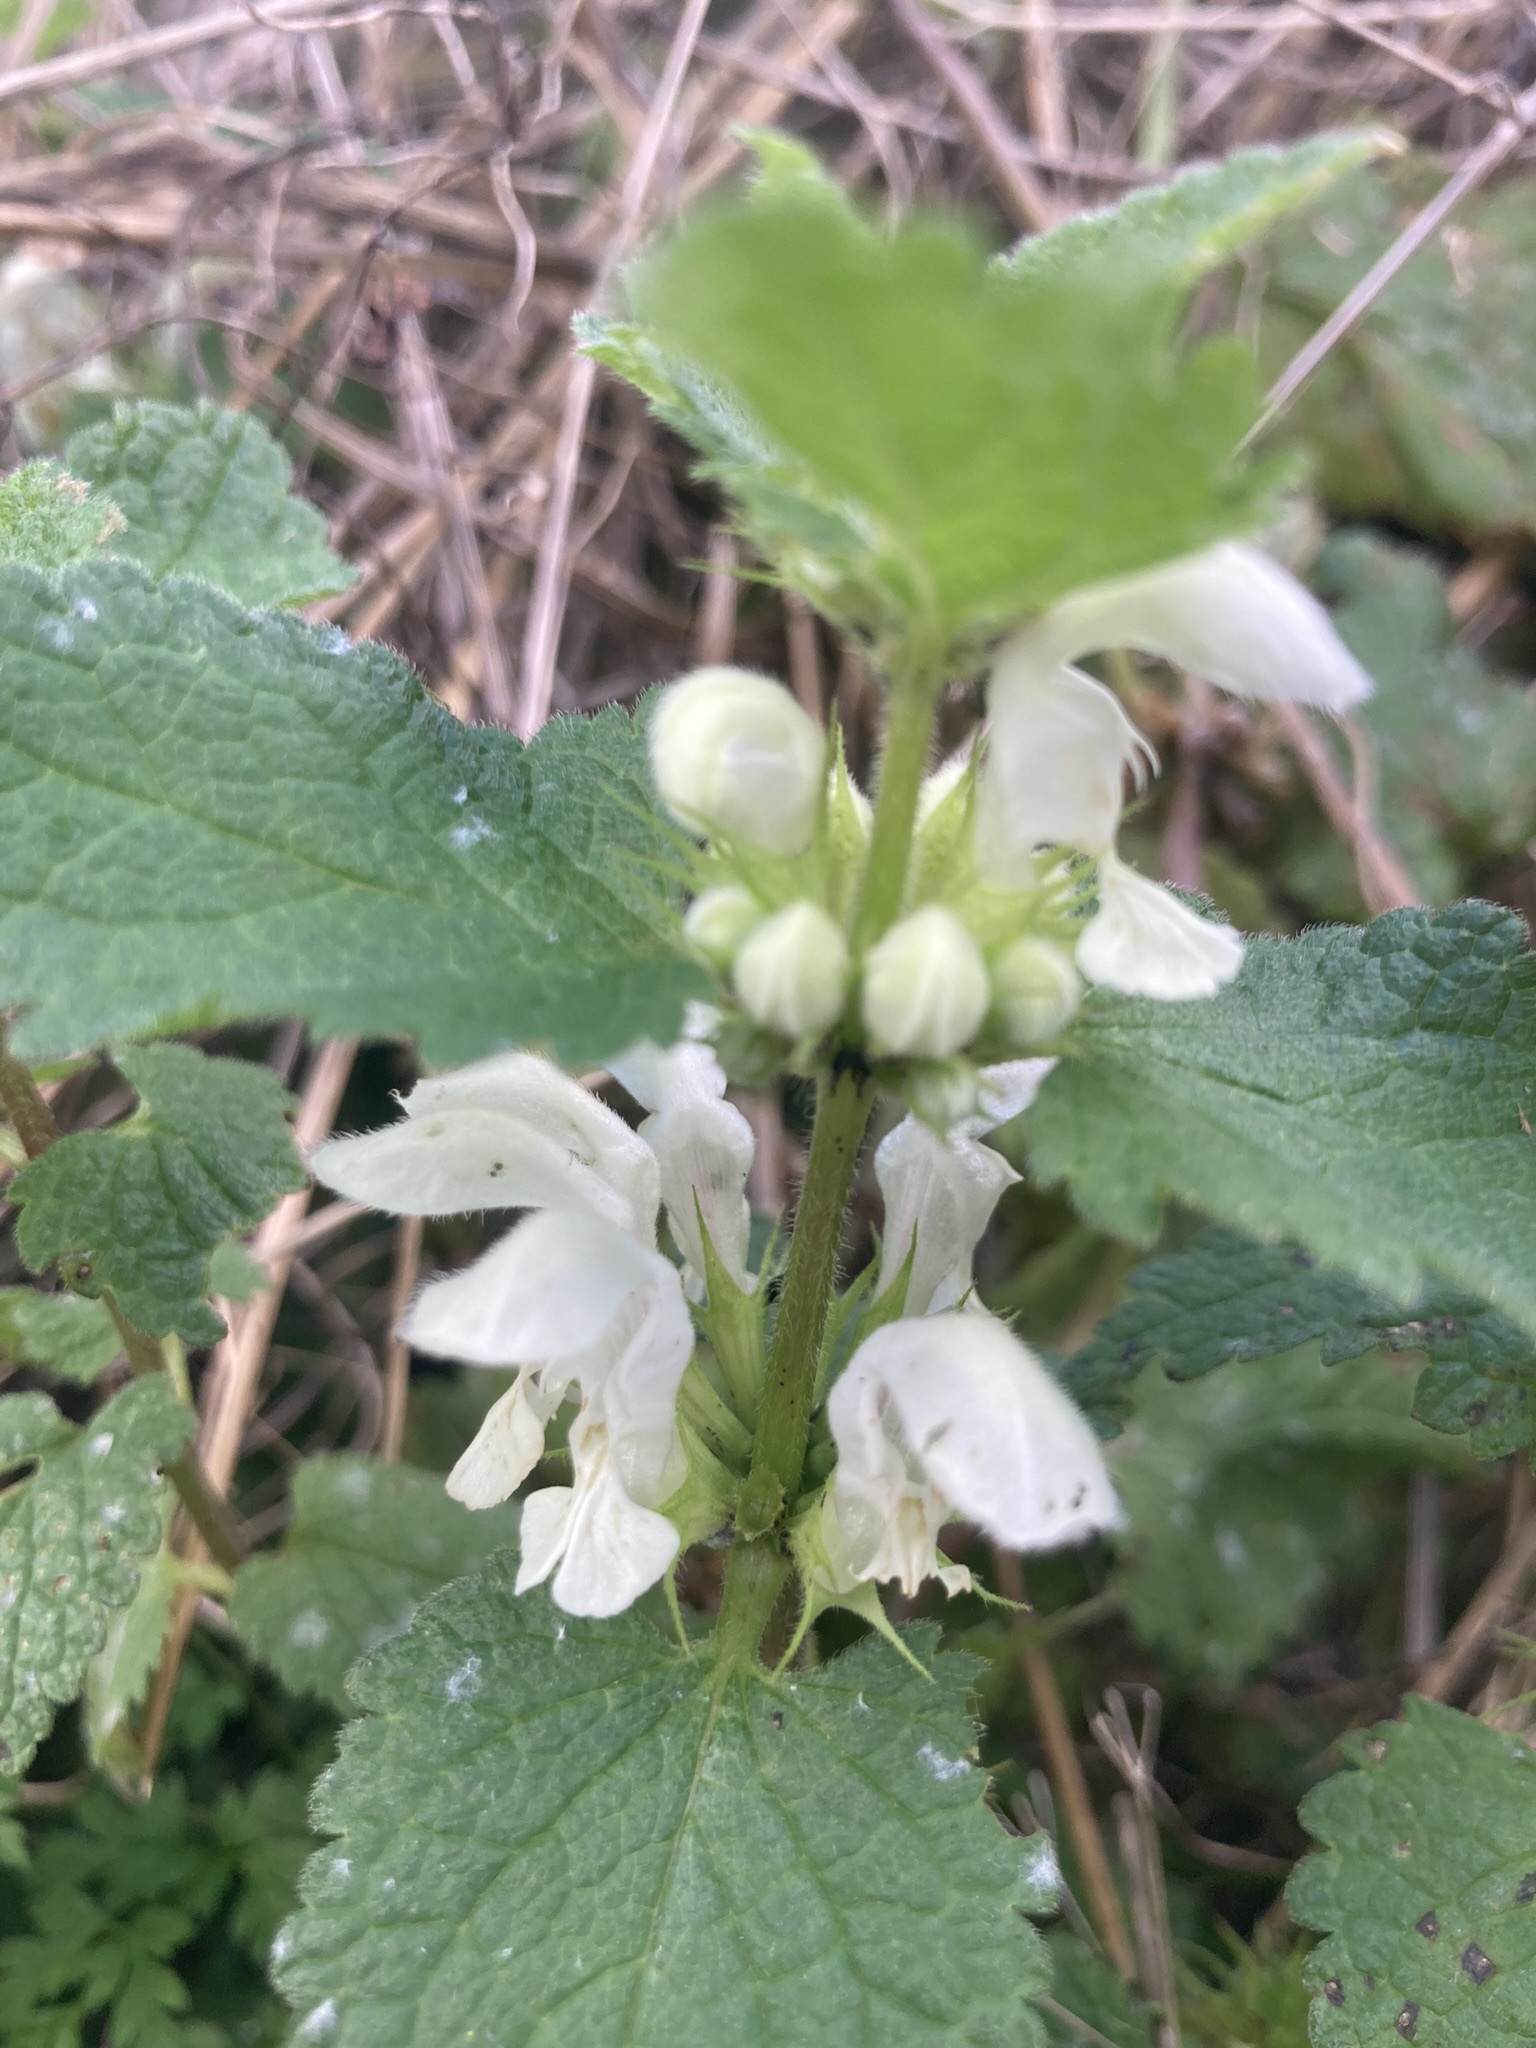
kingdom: Plantae
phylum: Tracheophyta
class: Magnoliopsida
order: Lamiales
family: Lamiaceae
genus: Lamium
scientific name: Lamium album
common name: White dead-nettle
